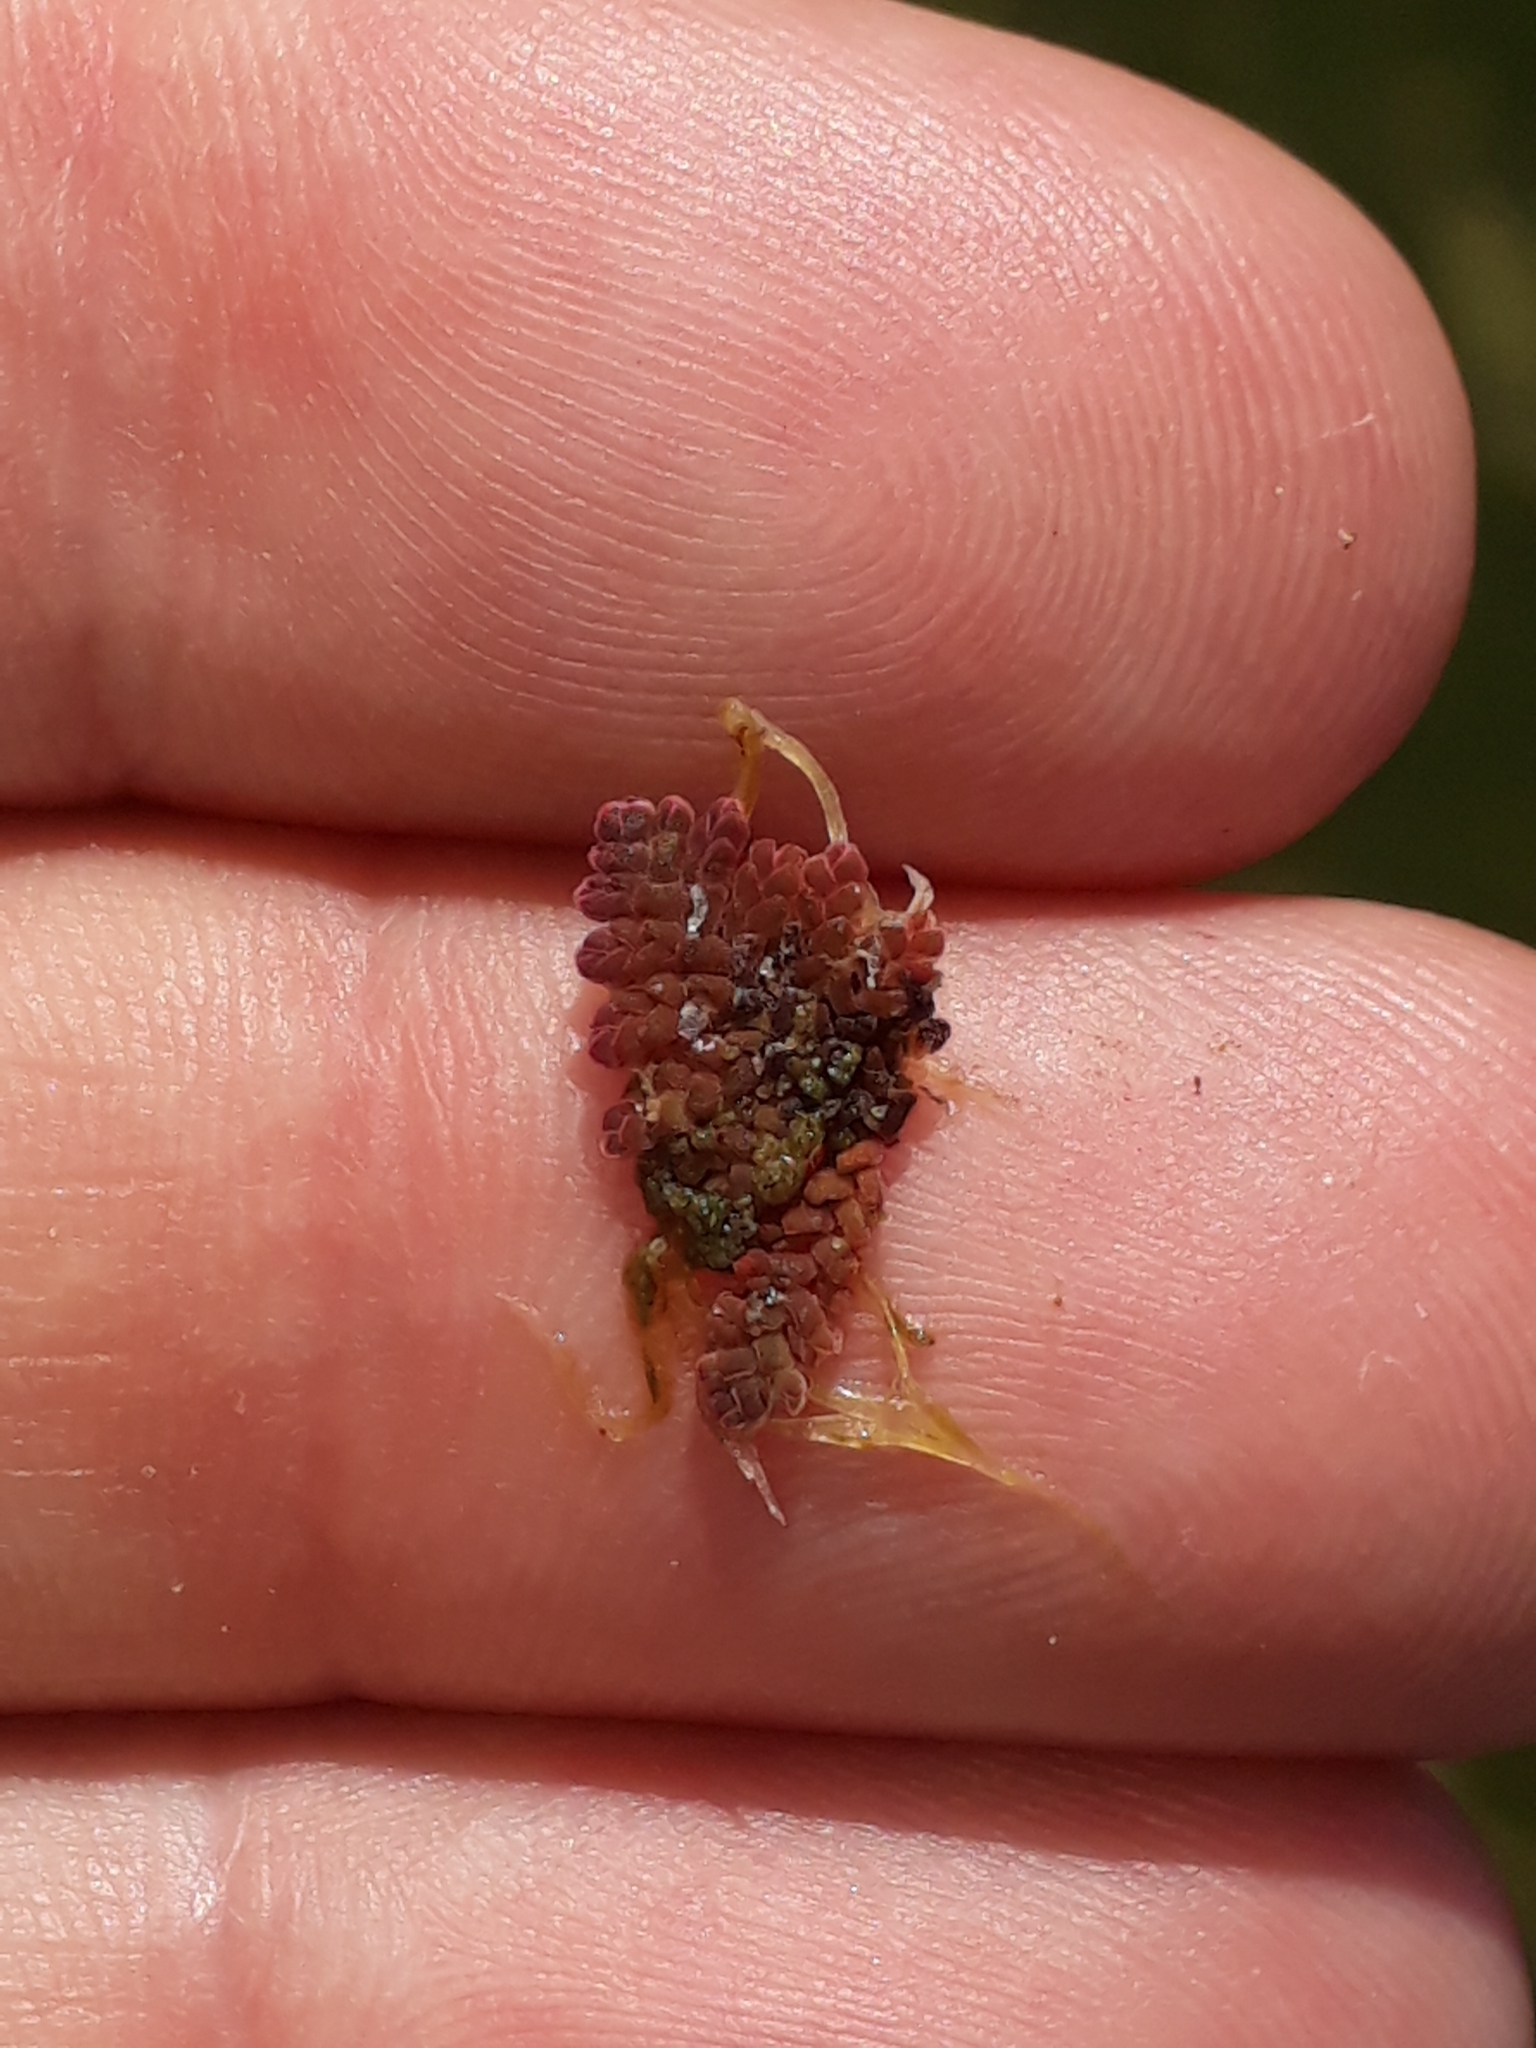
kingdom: Plantae
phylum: Tracheophyta
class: Polypodiopsida
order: Salviniales
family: Salviniaceae
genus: Azolla
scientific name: Azolla pinnata
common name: Ferny azolla
